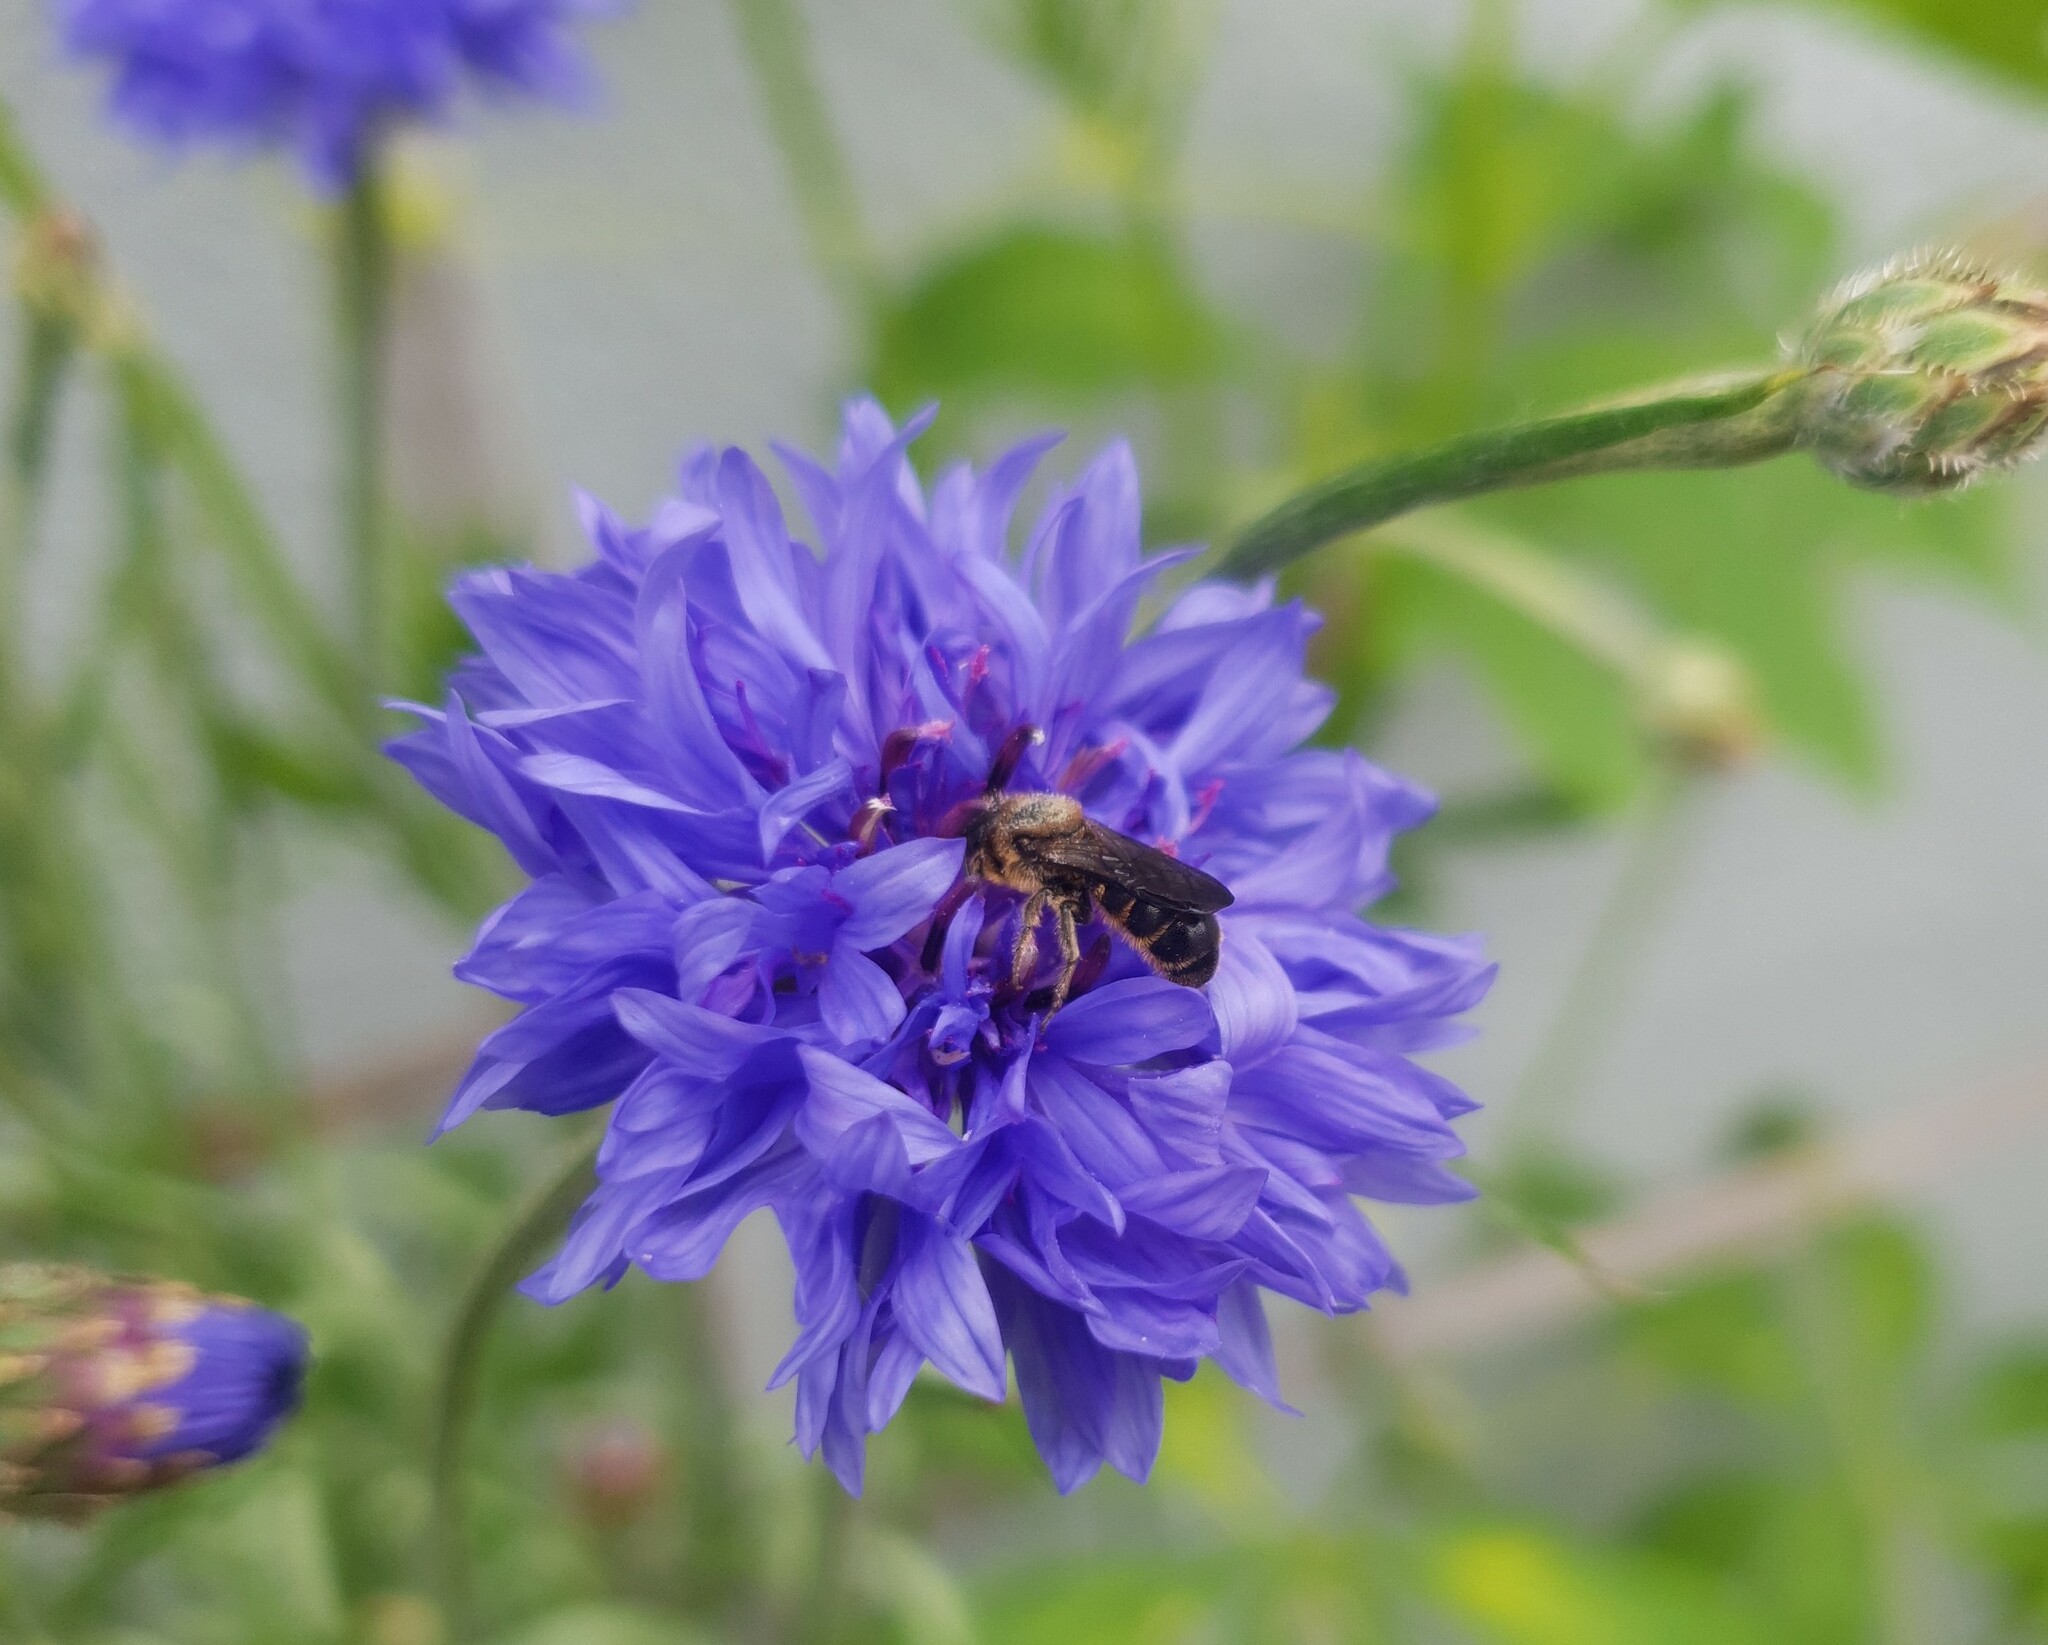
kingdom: Animalia
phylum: Arthropoda
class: Insecta
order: Hymenoptera
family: Megachilidae
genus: Chelostoma
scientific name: Chelostoma rapunculi
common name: Rampion scissor bee
